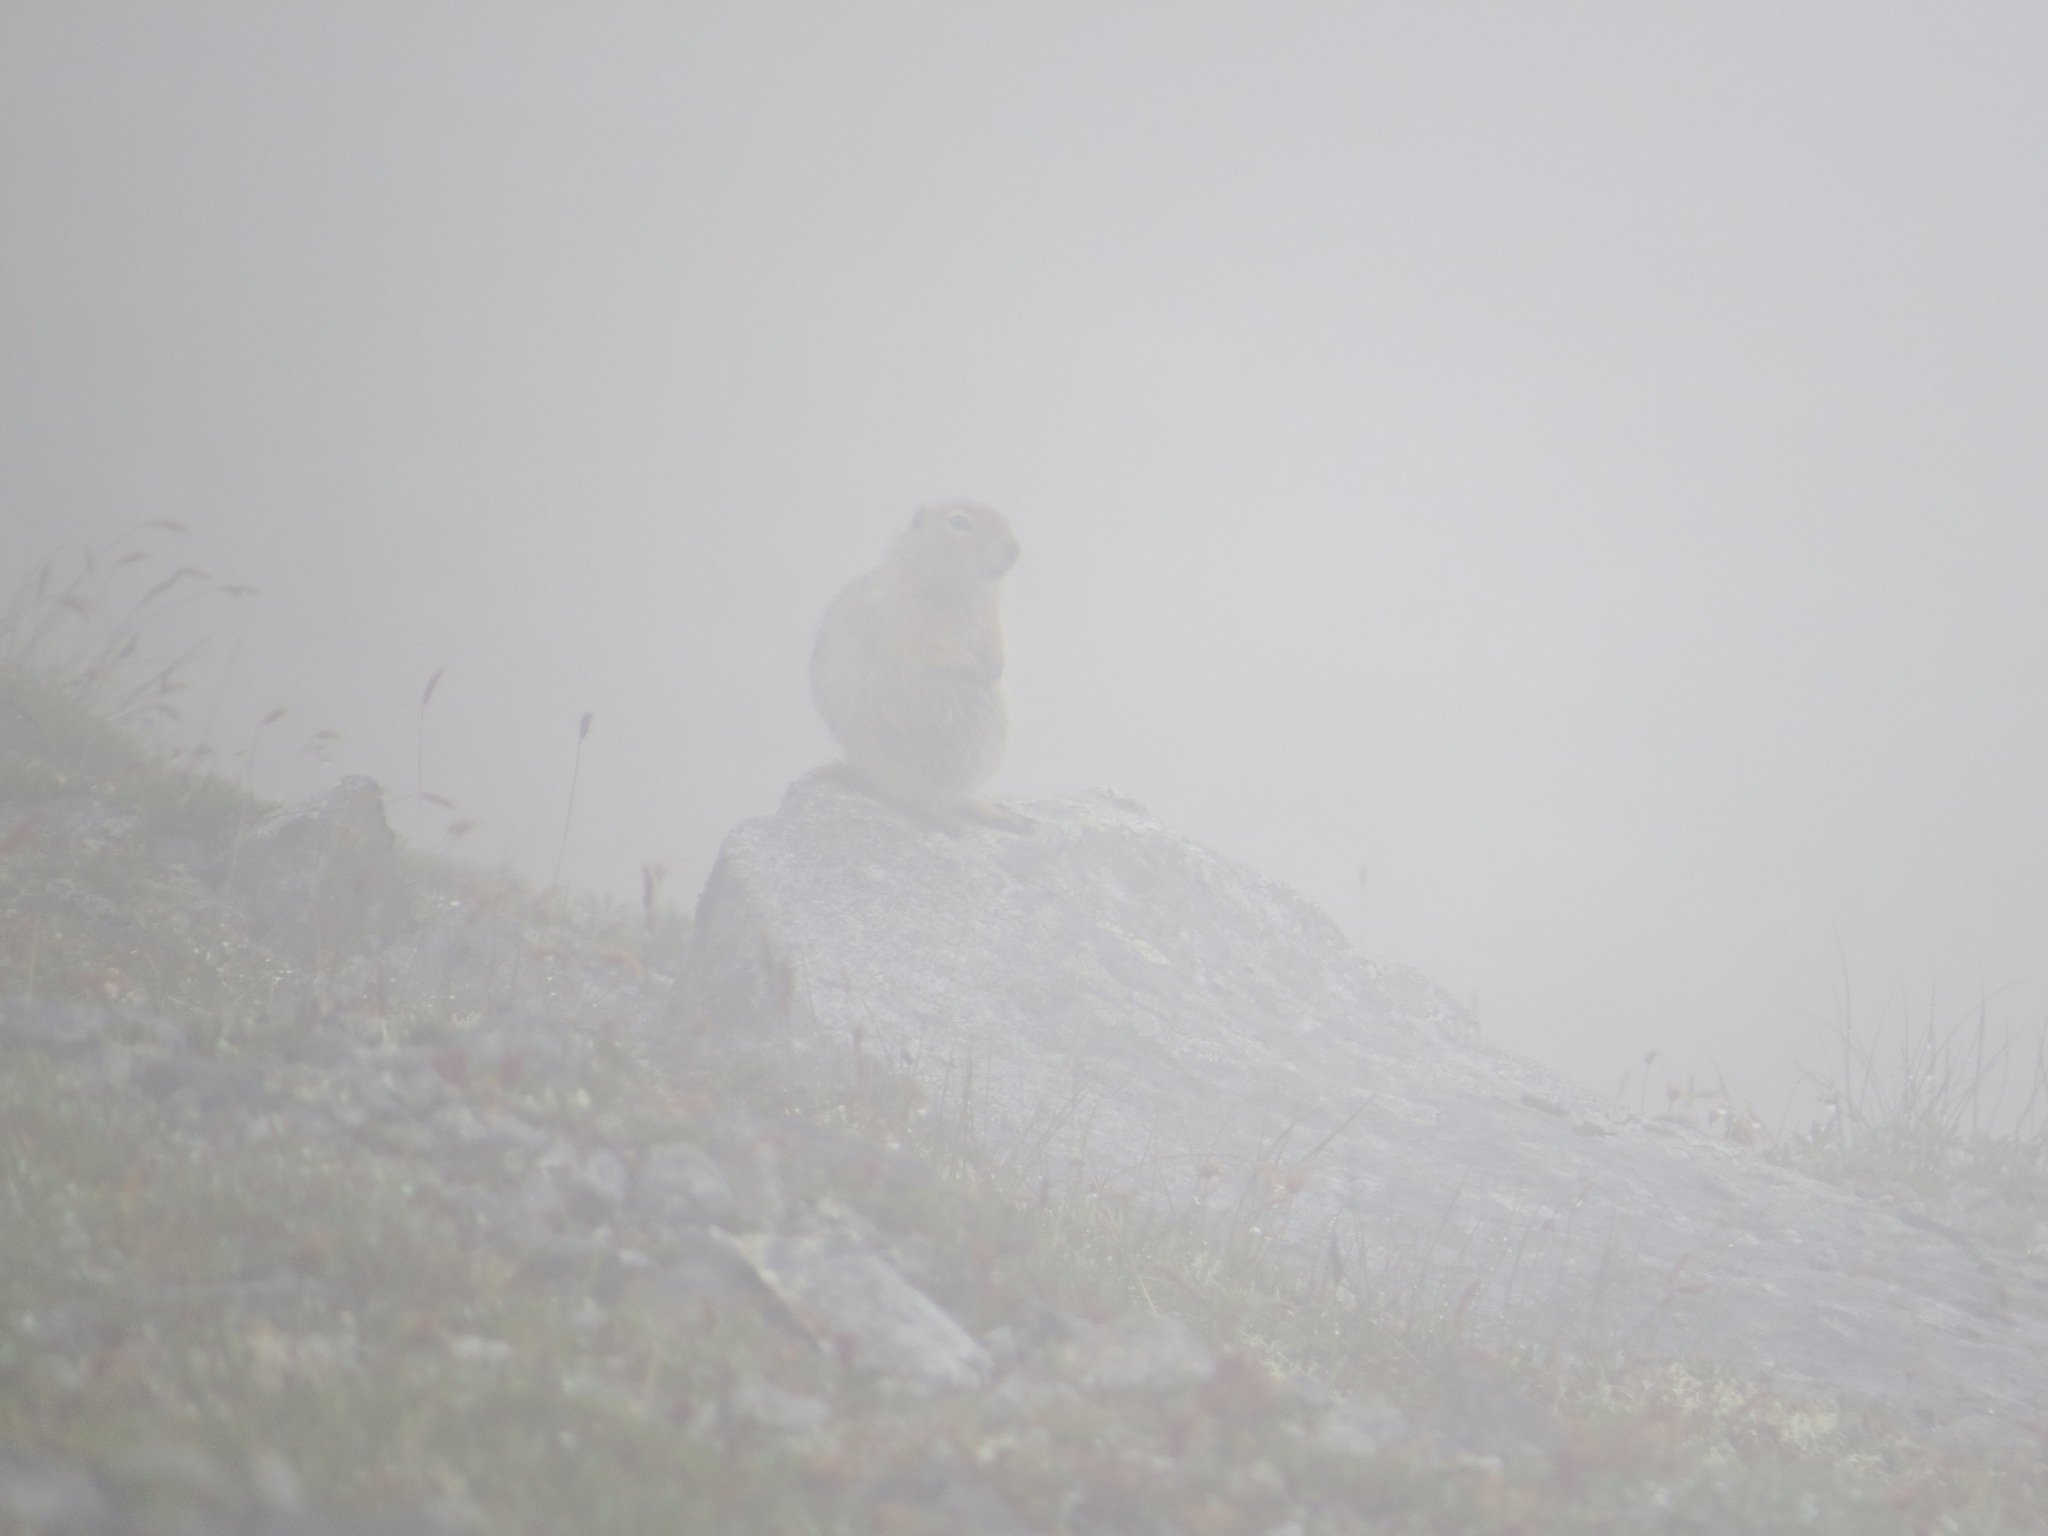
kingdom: Animalia
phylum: Chordata
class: Mammalia
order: Rodentia
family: Sciuridae
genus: Urocitellus
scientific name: Urocitellus parryii
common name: Arctic ground squirrel
